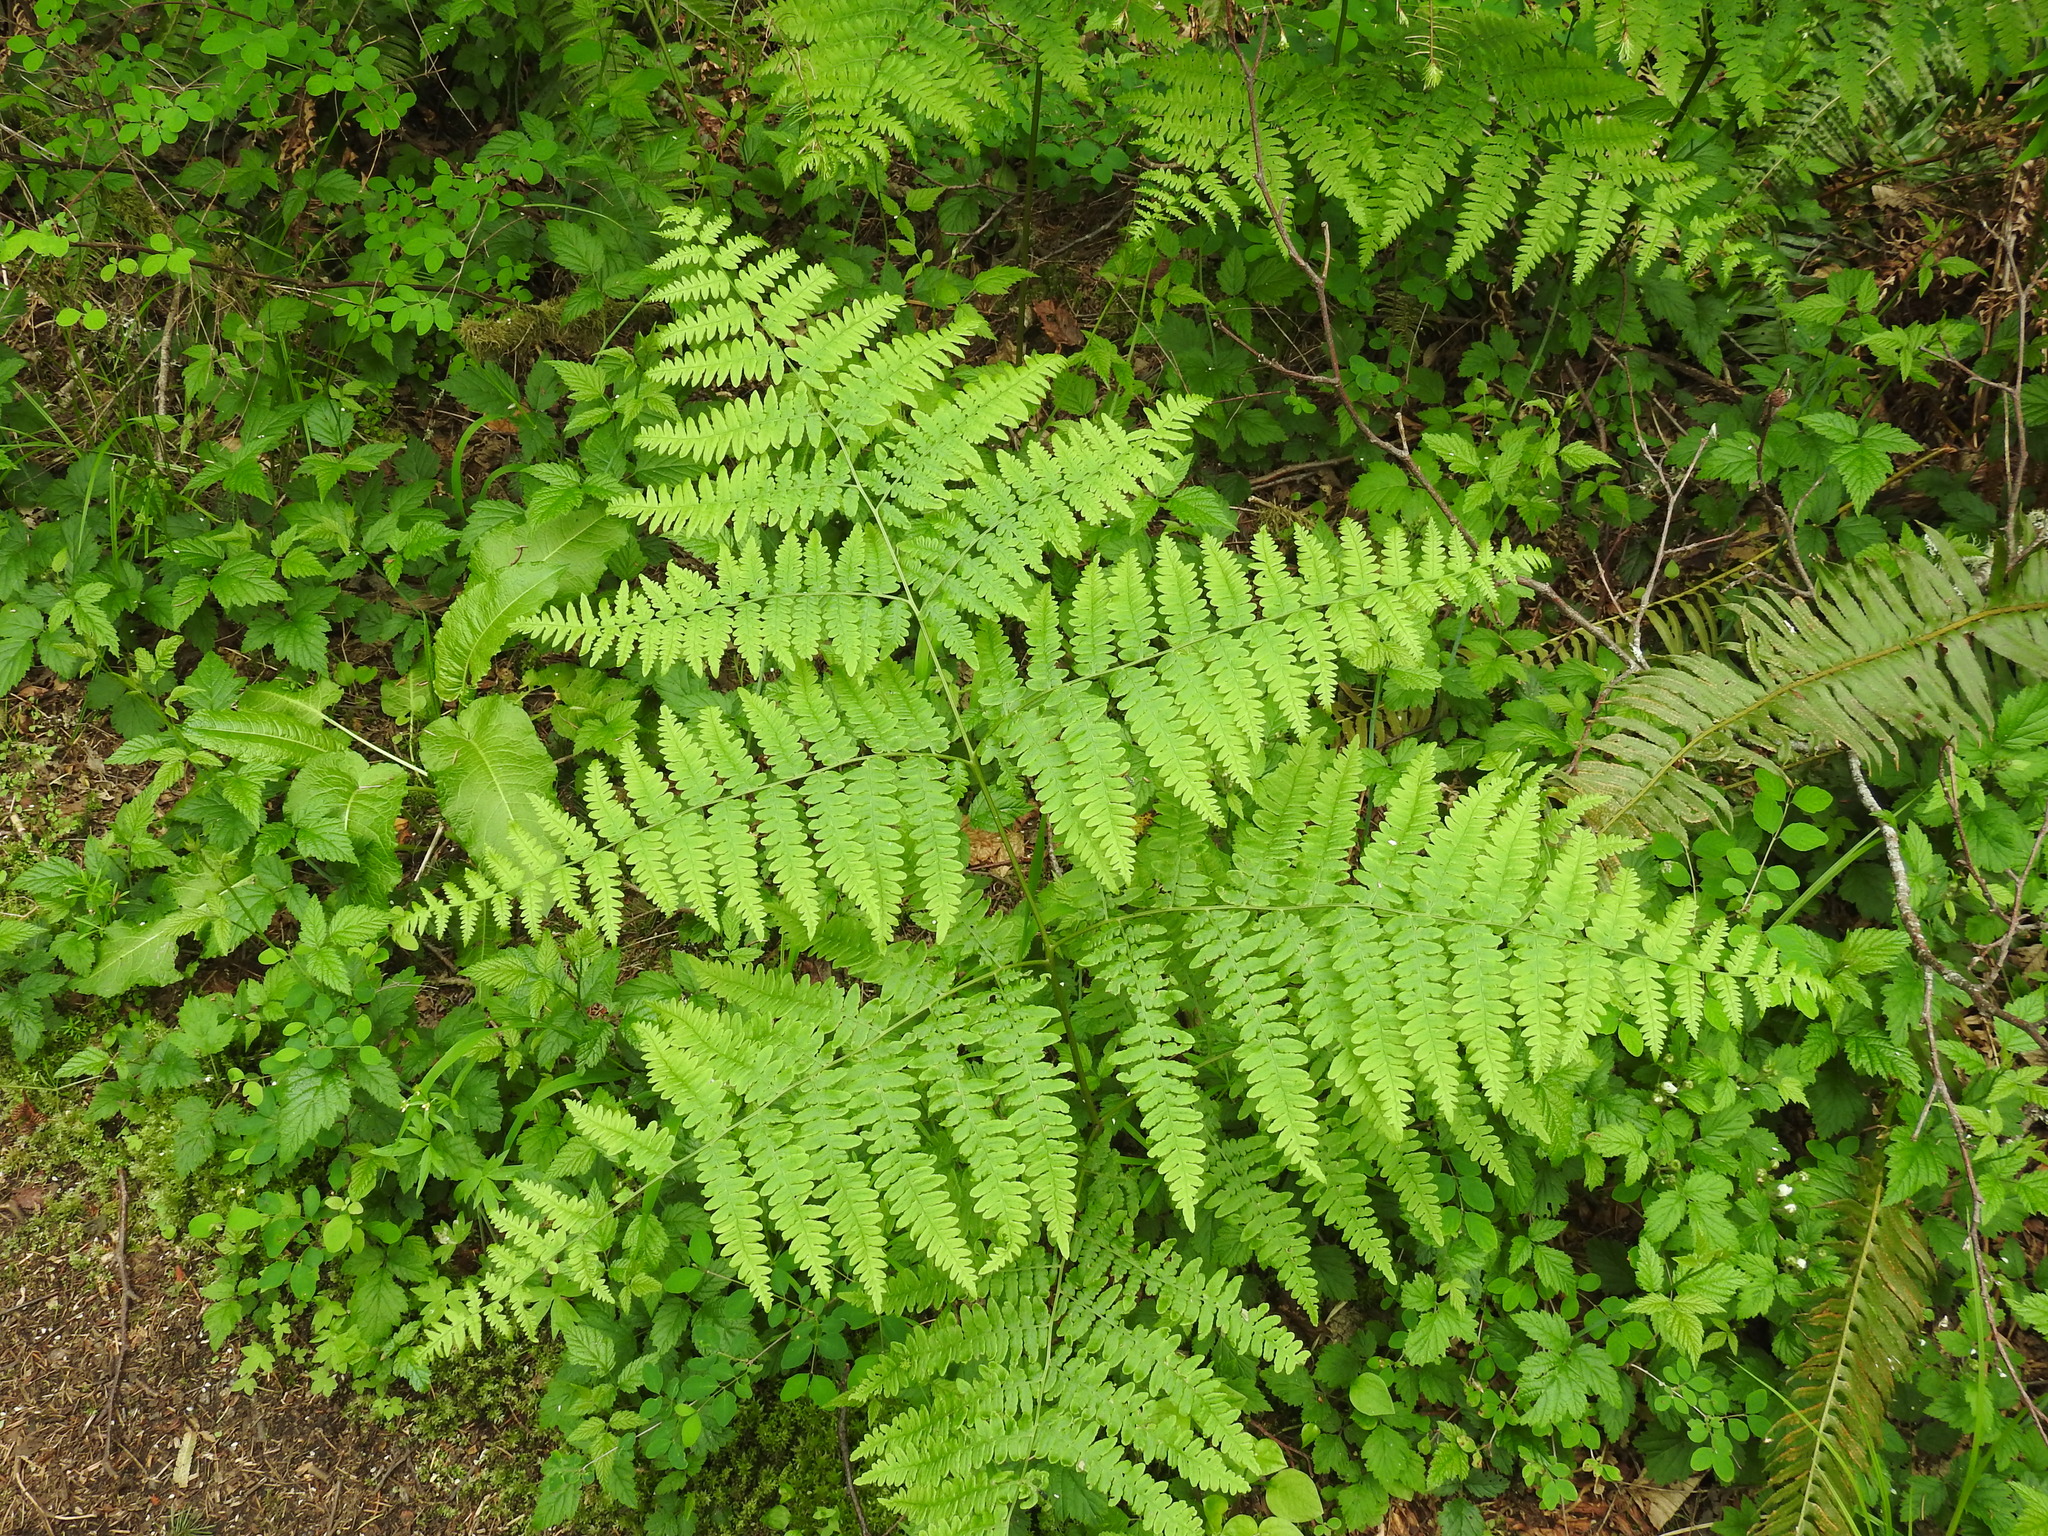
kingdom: Plantae
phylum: Tracheophyta
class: Polypodiopsida
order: Polypodiales
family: Dennstaedtiaceae
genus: Pteridium
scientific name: Pteridium aquilinum
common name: Bracken
